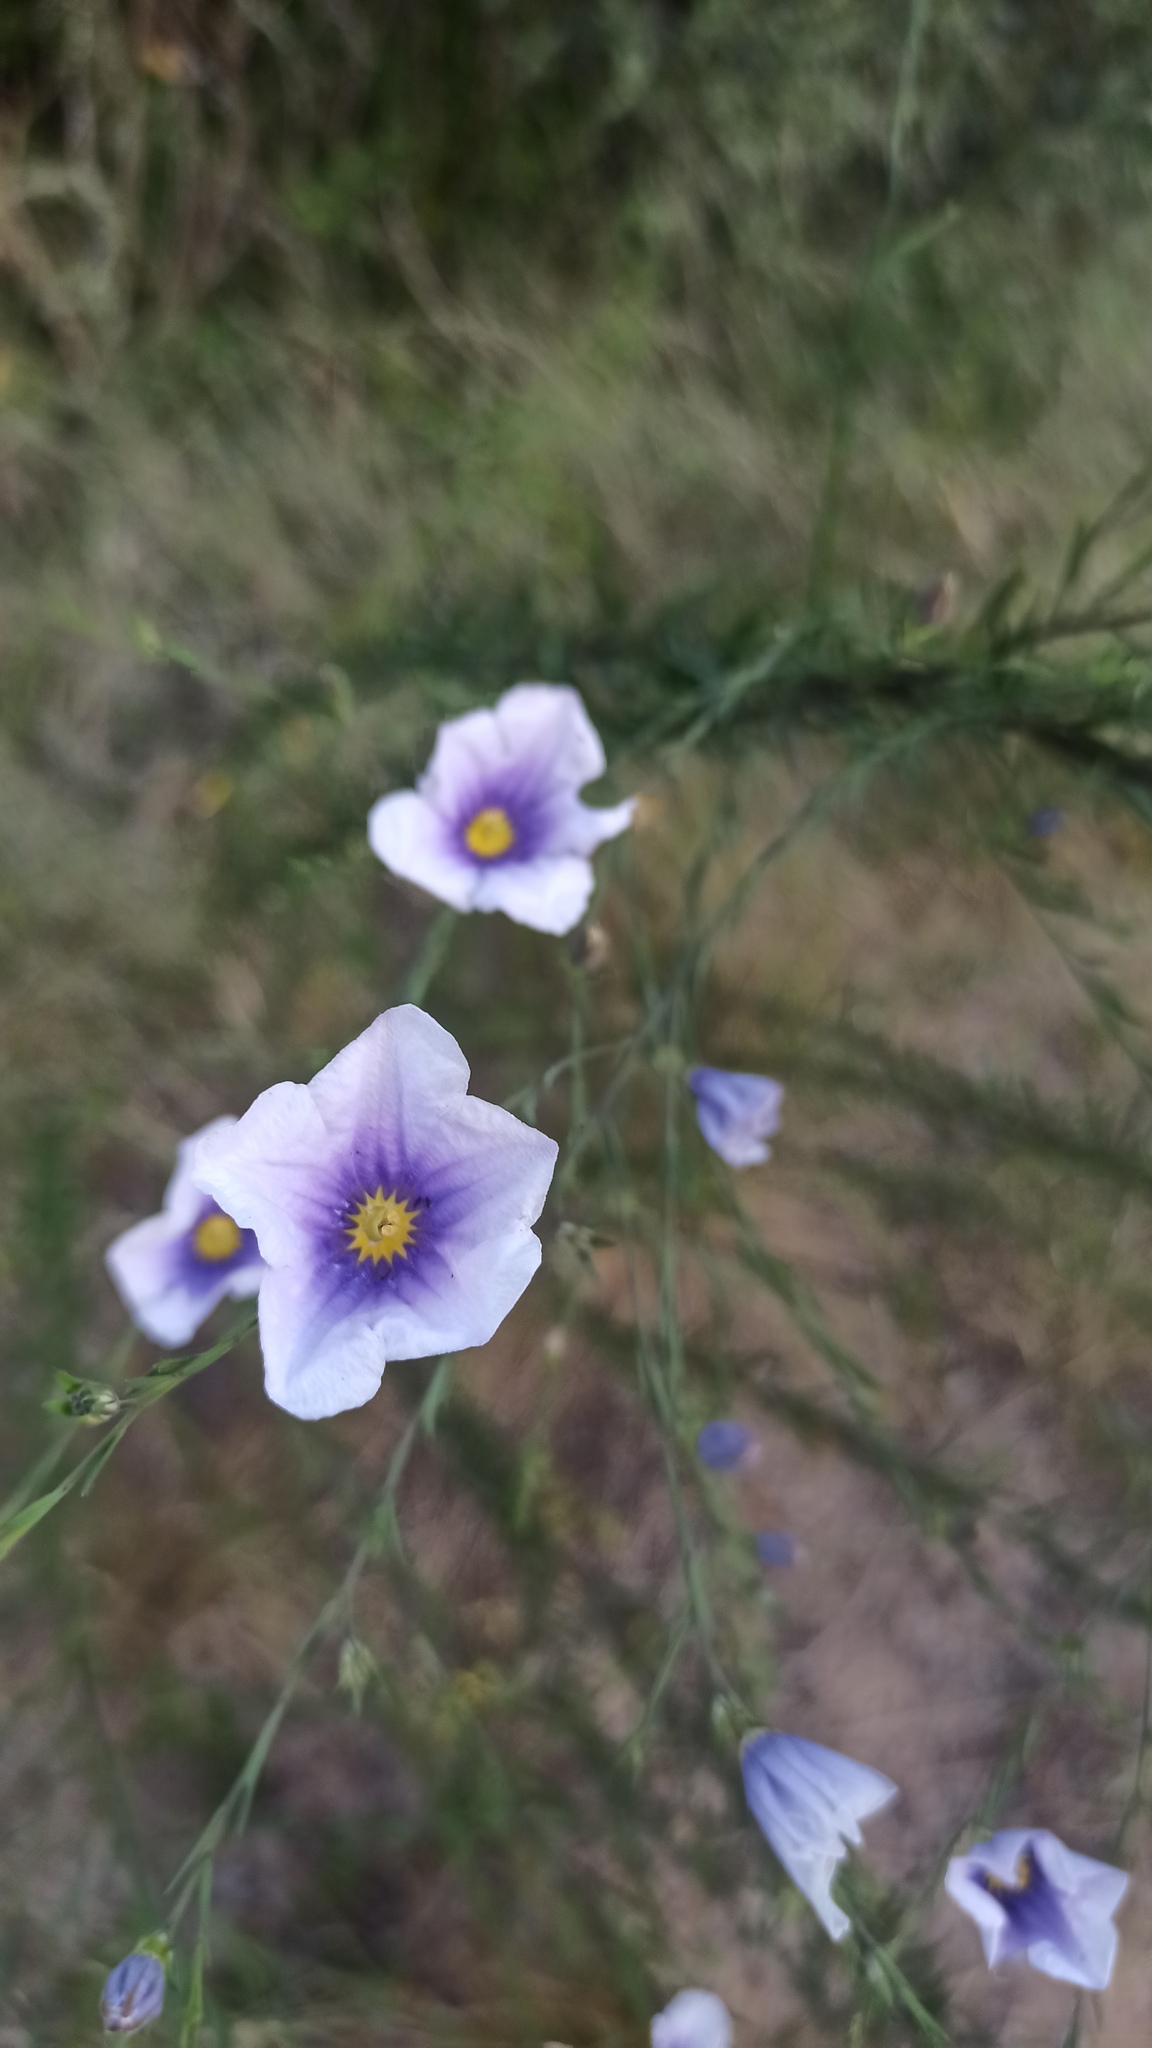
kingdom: Plantae
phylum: Tracheophyta
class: Magnoliopsida
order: Solanales
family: Solanaceae
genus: Nierembergia
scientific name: Nierembergia scoparia
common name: Broom cupflower
